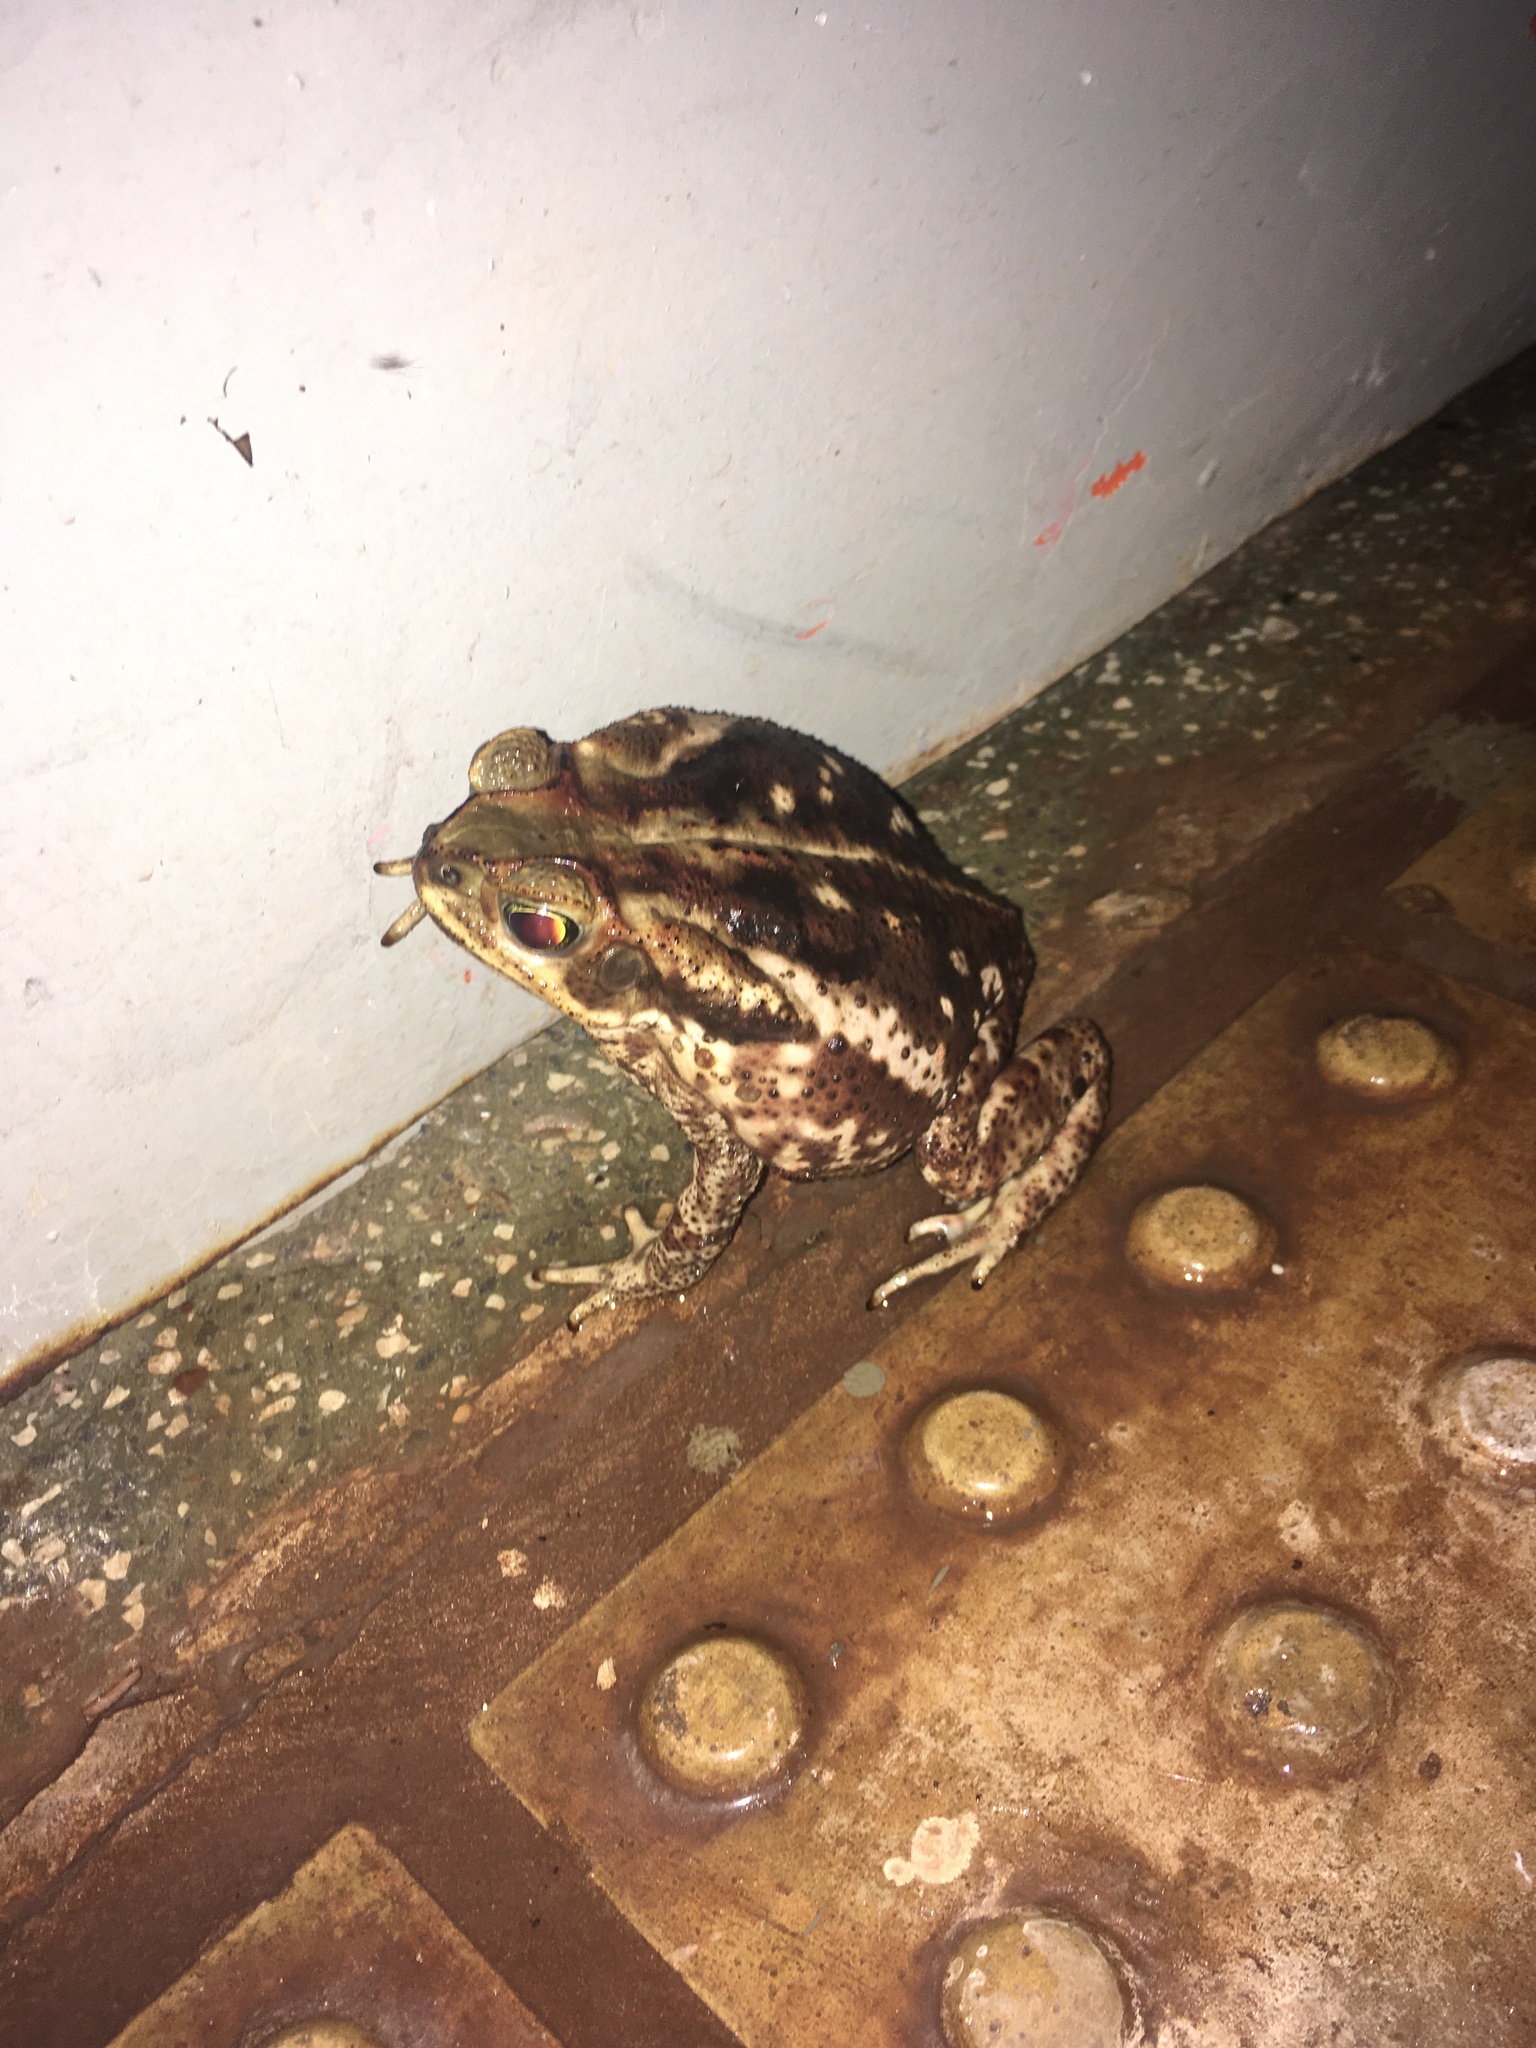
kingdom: Animalia
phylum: Chordata
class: Amphibia
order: Anura
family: Bufonidae
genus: Rhinella
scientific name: Rhinella diptycha
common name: Cope's toad
